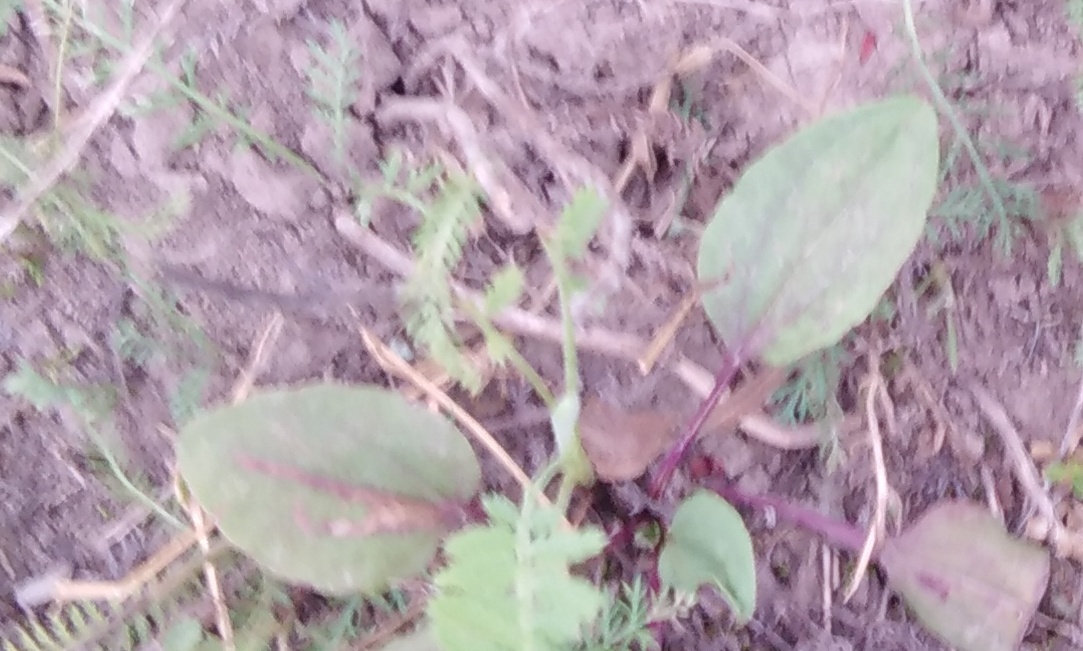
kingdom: Plantae
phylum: Tracheophyta
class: Magnoliopsida
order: Lamiales
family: Plantaginaceae
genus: Plantago
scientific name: Plantago major
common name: Common plantain
